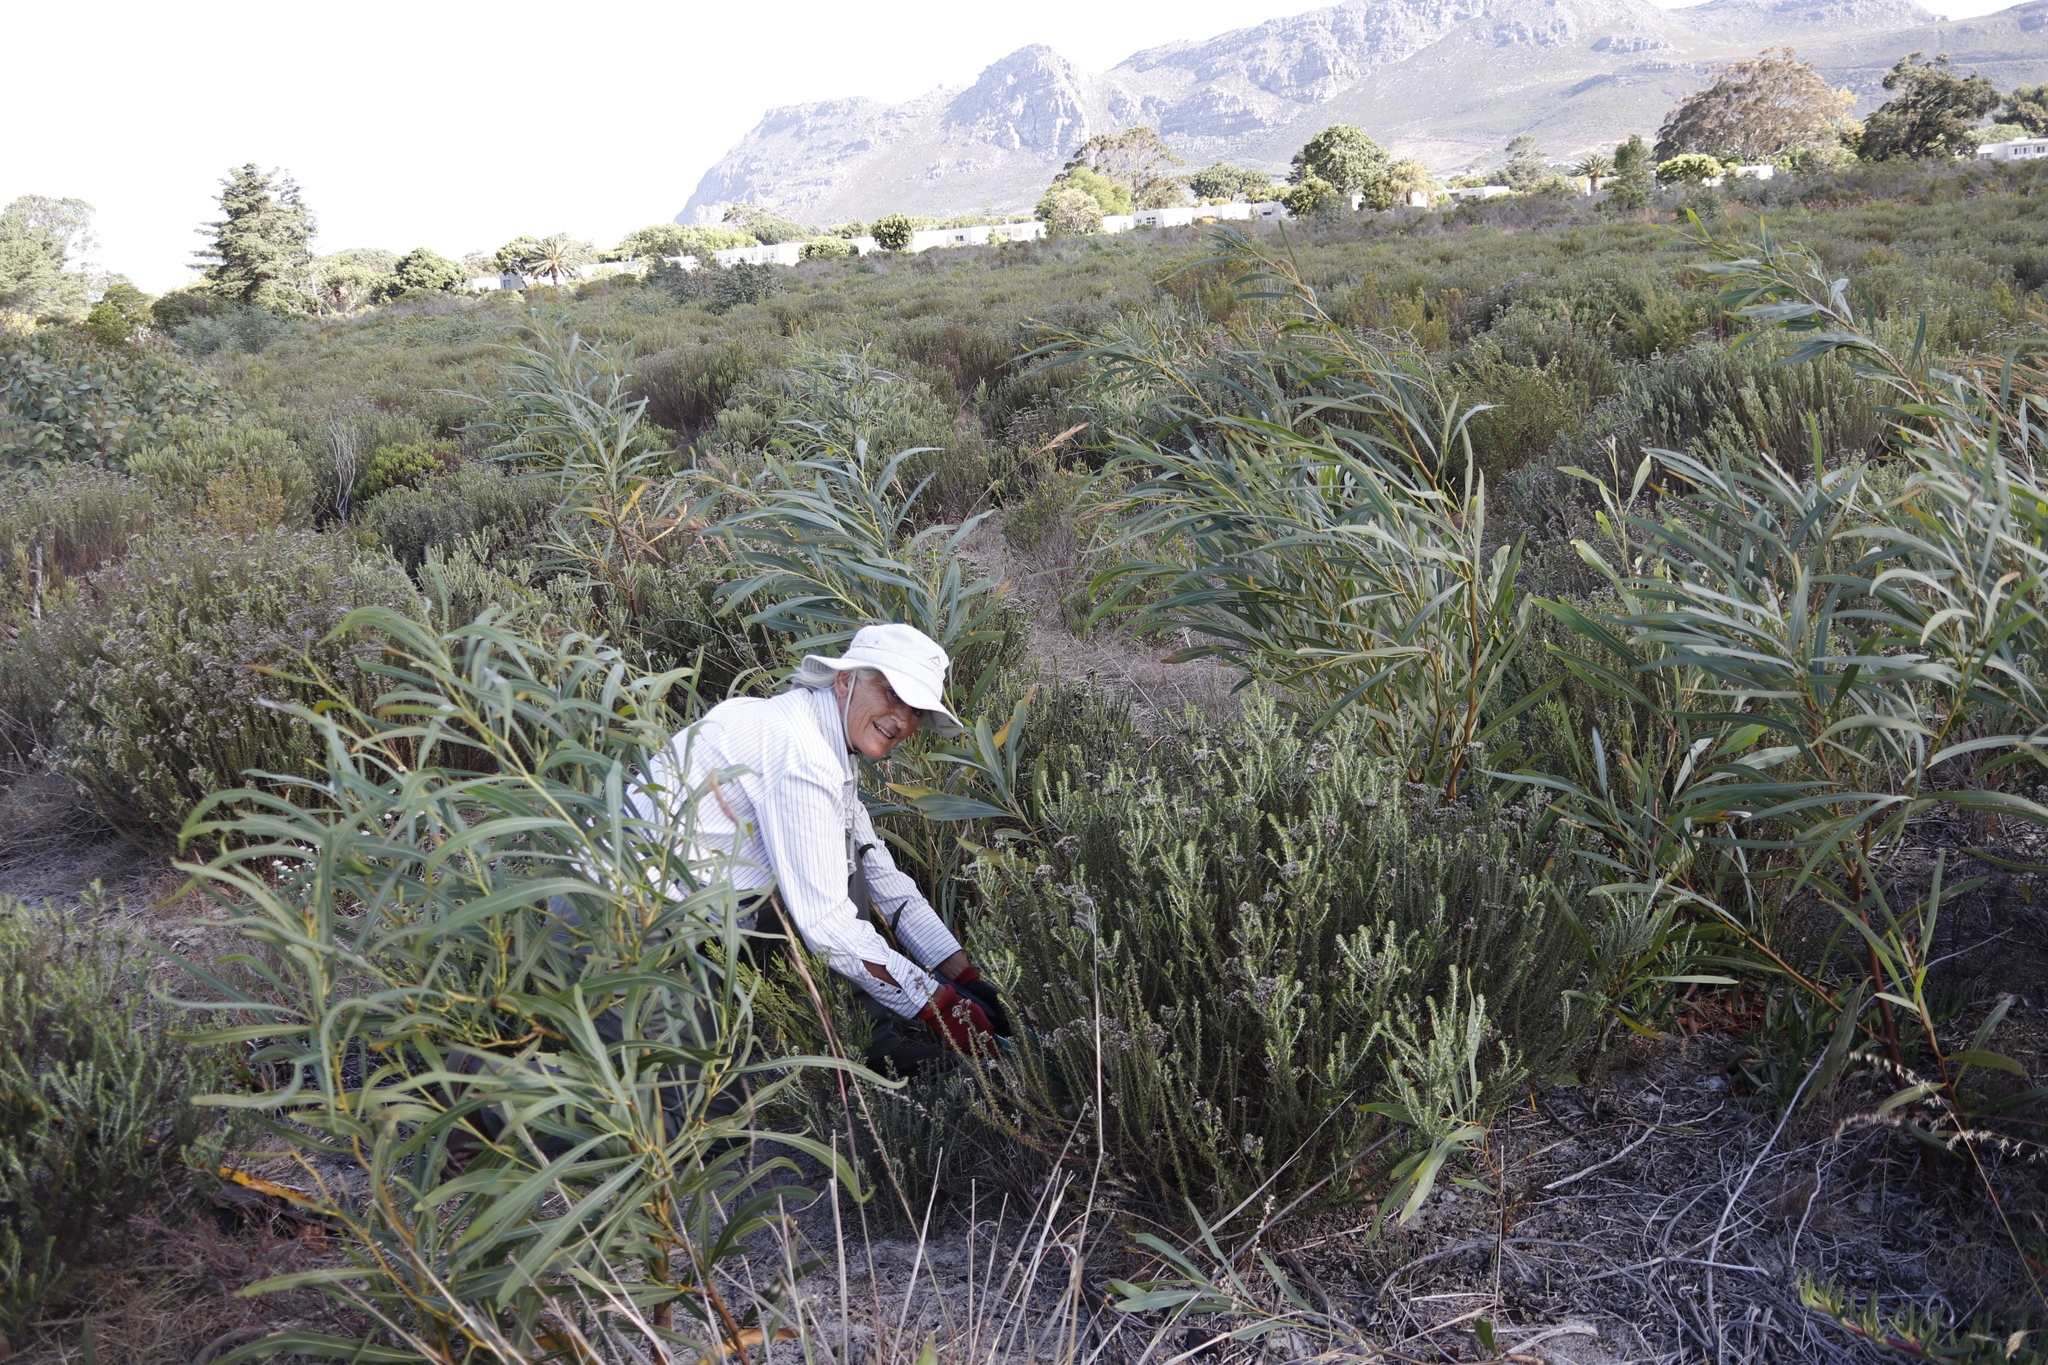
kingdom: Plantae
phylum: Tracheophyta
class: Magnoliopsida
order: Fabales
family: Fabaceae
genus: Acacia
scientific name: Acacia saligna
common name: Orange wattle
